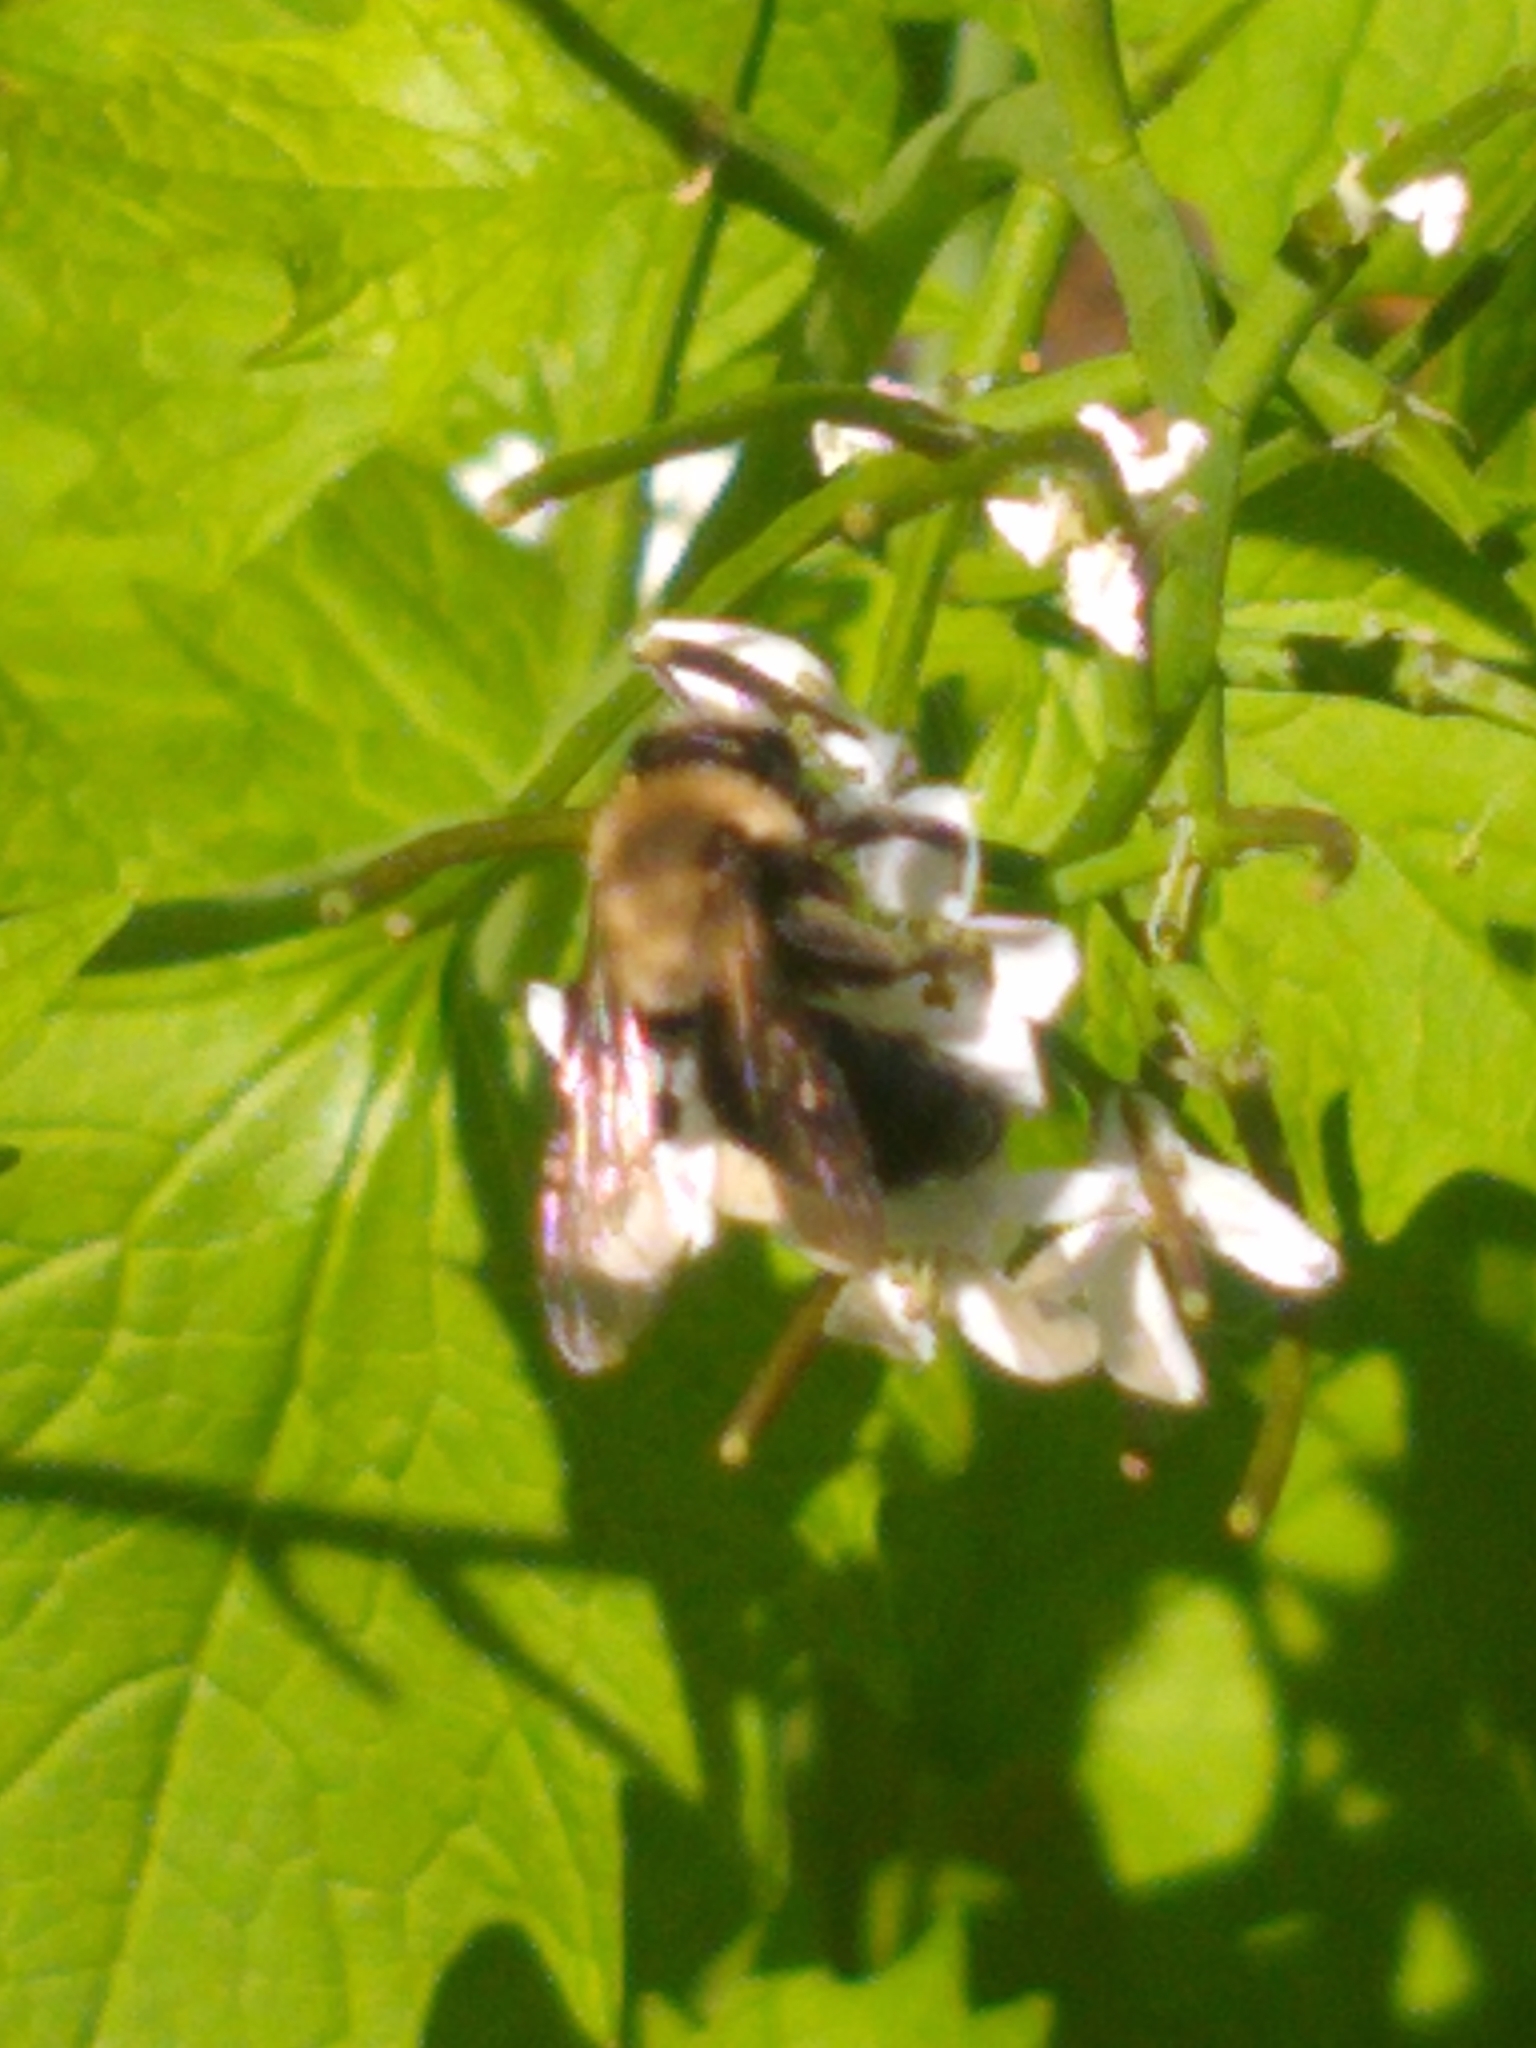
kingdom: Animalia
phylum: Arthropoda
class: Insecta
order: Hymenoptera
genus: Melandrena
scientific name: Melandrena
